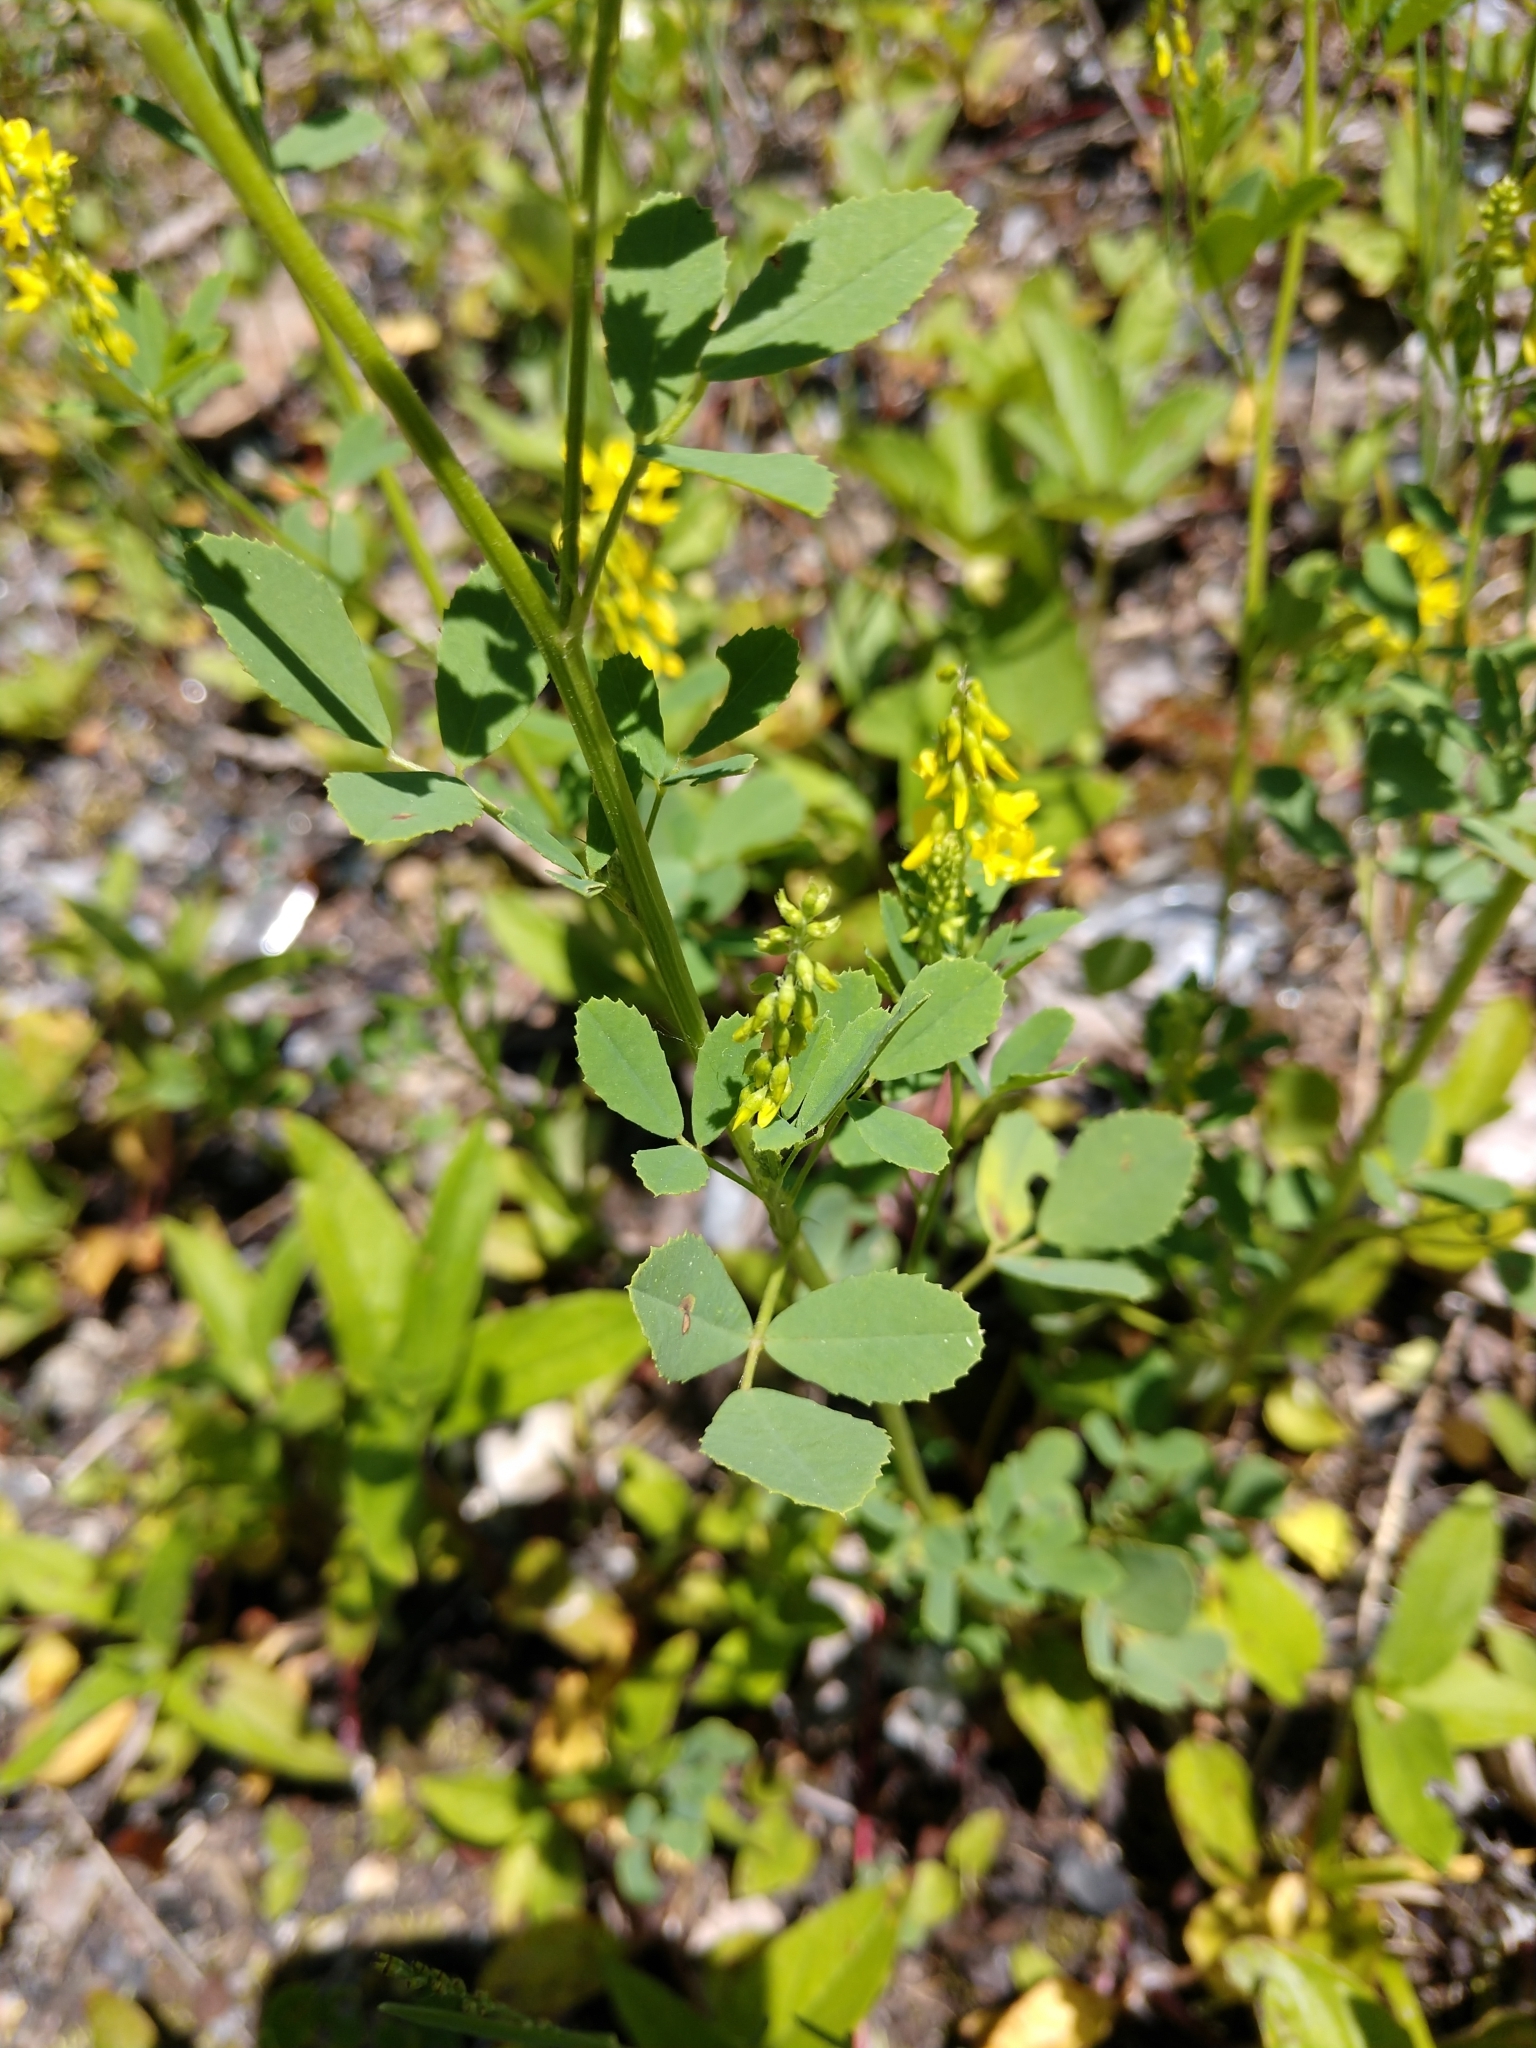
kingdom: Plantae
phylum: Tracheophyta
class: Magnoliopsida
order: Fabales
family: Fabaceae
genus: Melilotus
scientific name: Melilotus officinalis
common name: Sweetclover
